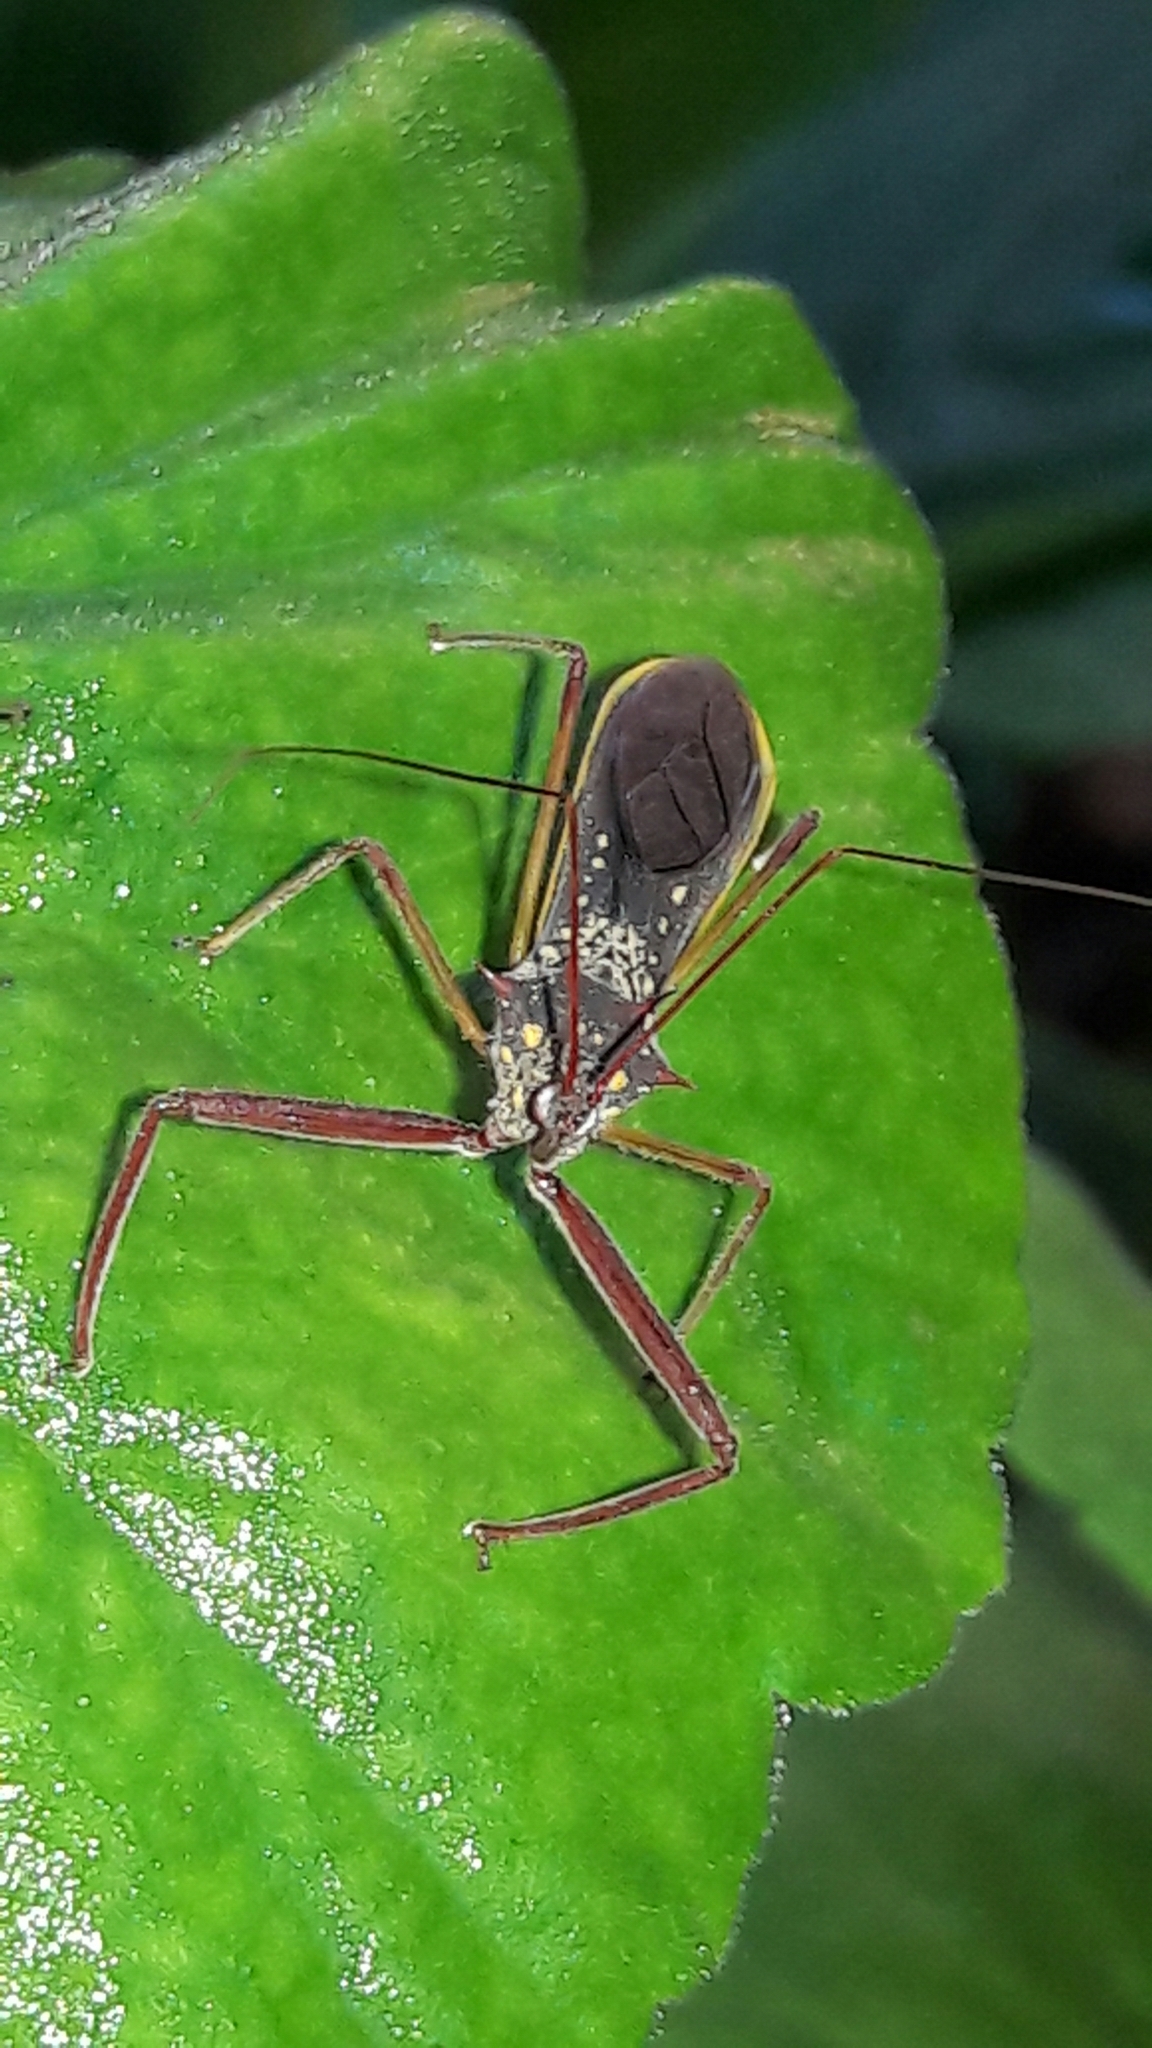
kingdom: Animalia
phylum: Arthropoda
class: Insecta
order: Hemiptera
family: Reduviidae
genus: Heza
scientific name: Heza binotata
